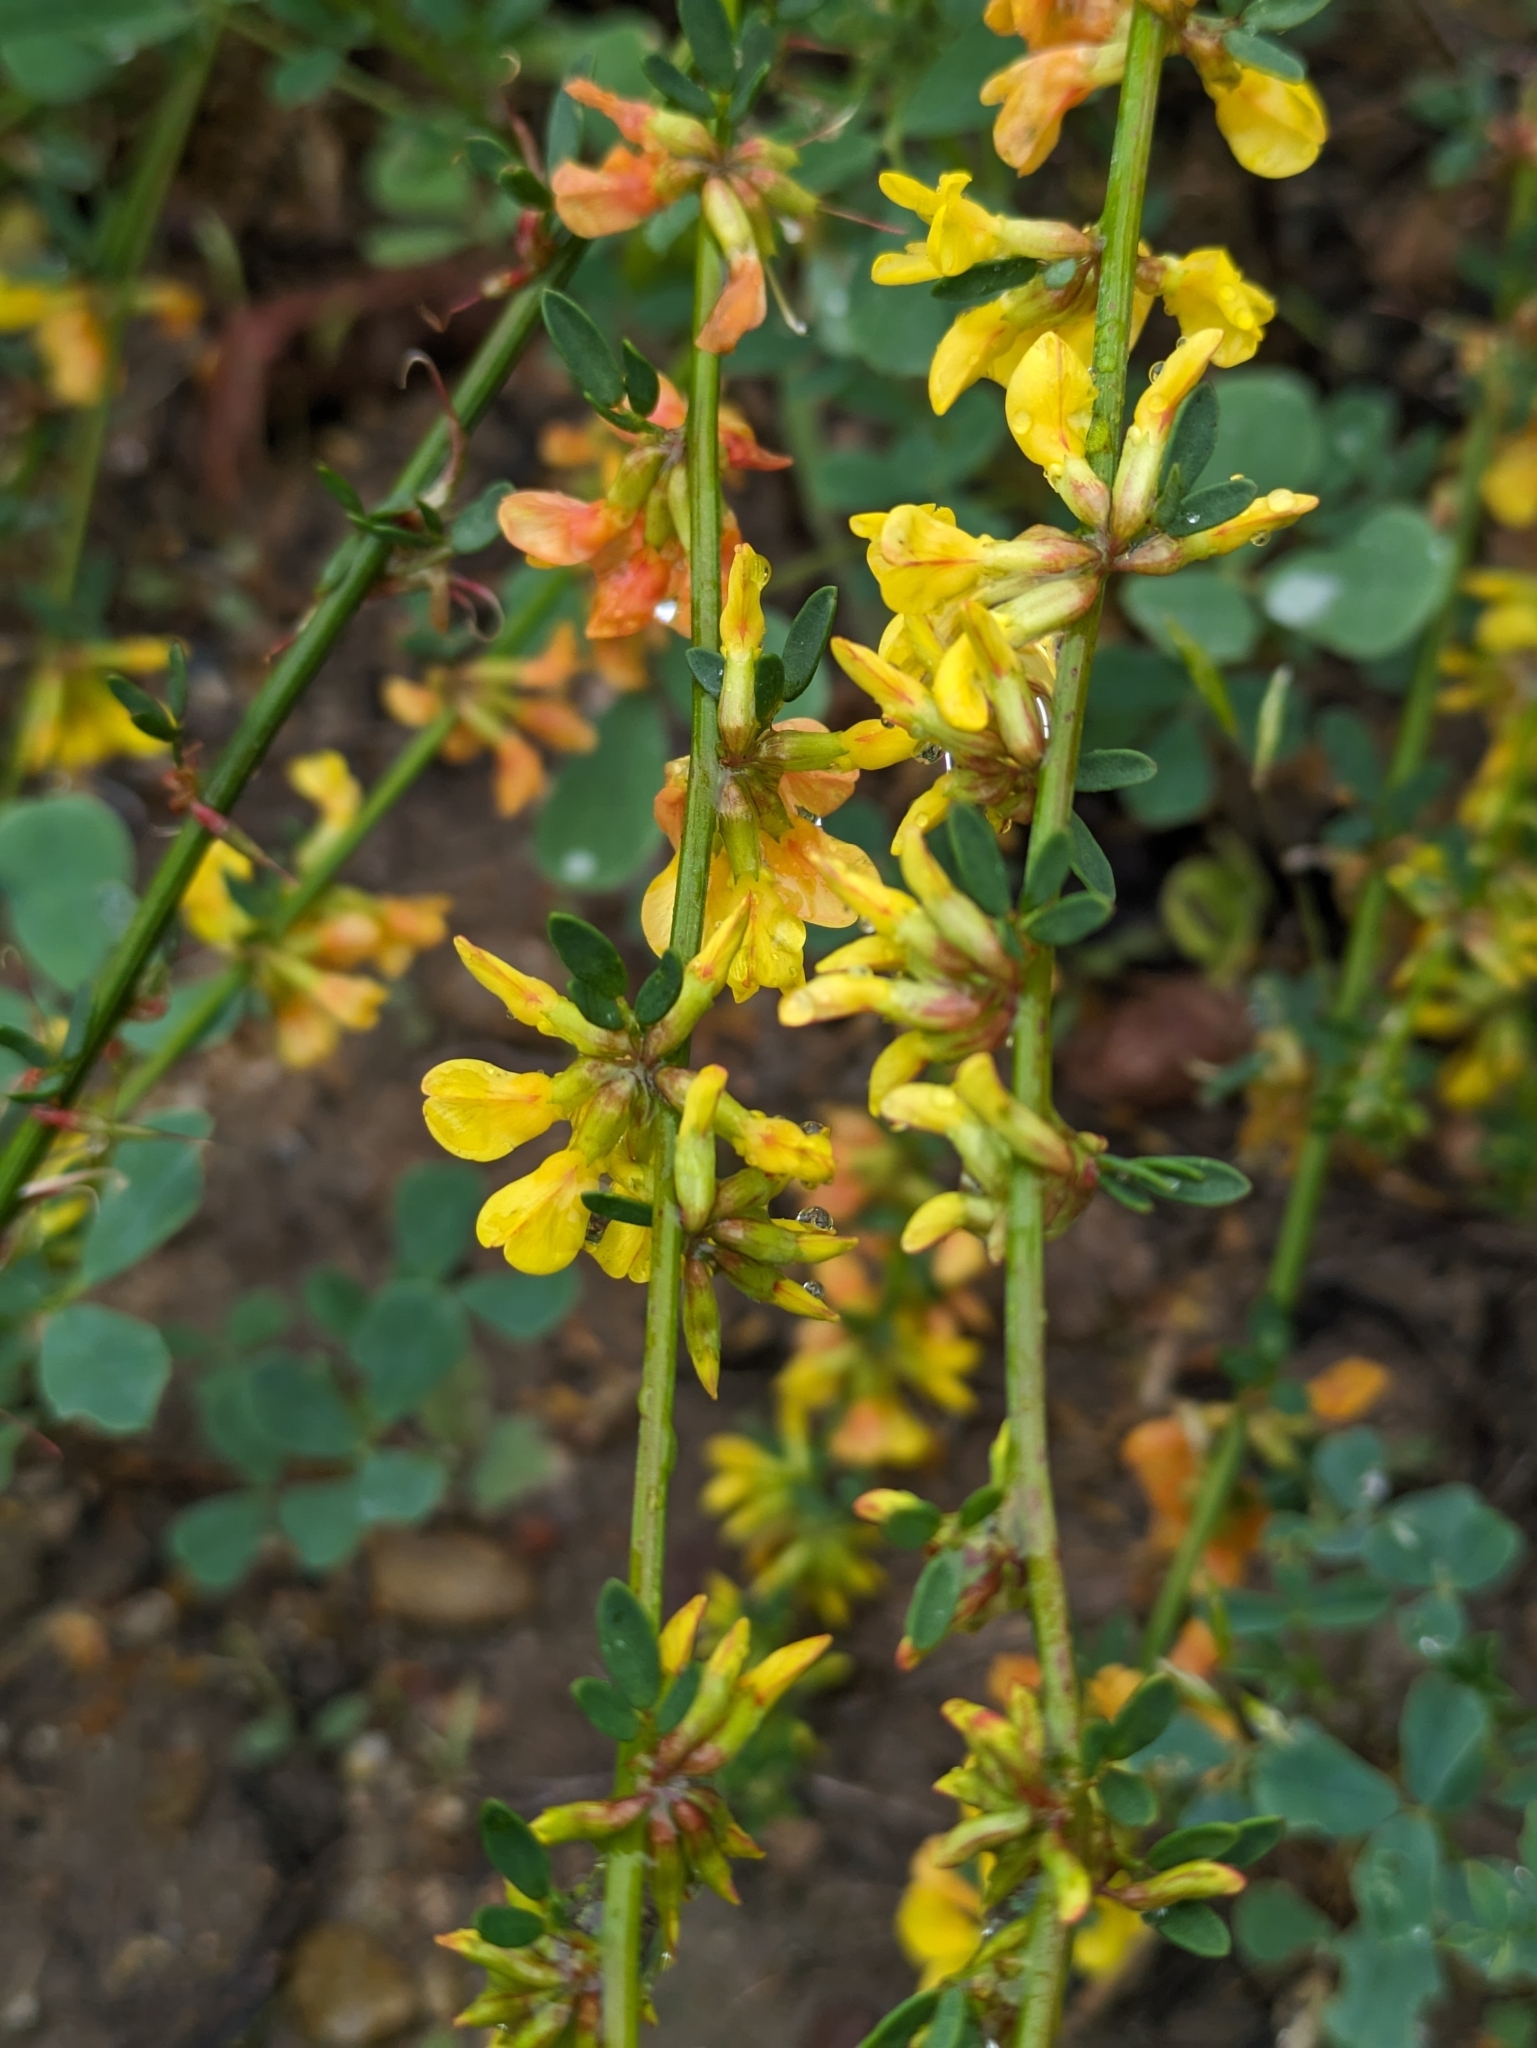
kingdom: Plantae
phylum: Tracheophyta
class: Magnoliopsida
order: Fabales
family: Fabaceae
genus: Acmispon
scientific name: Acmispon glaber
